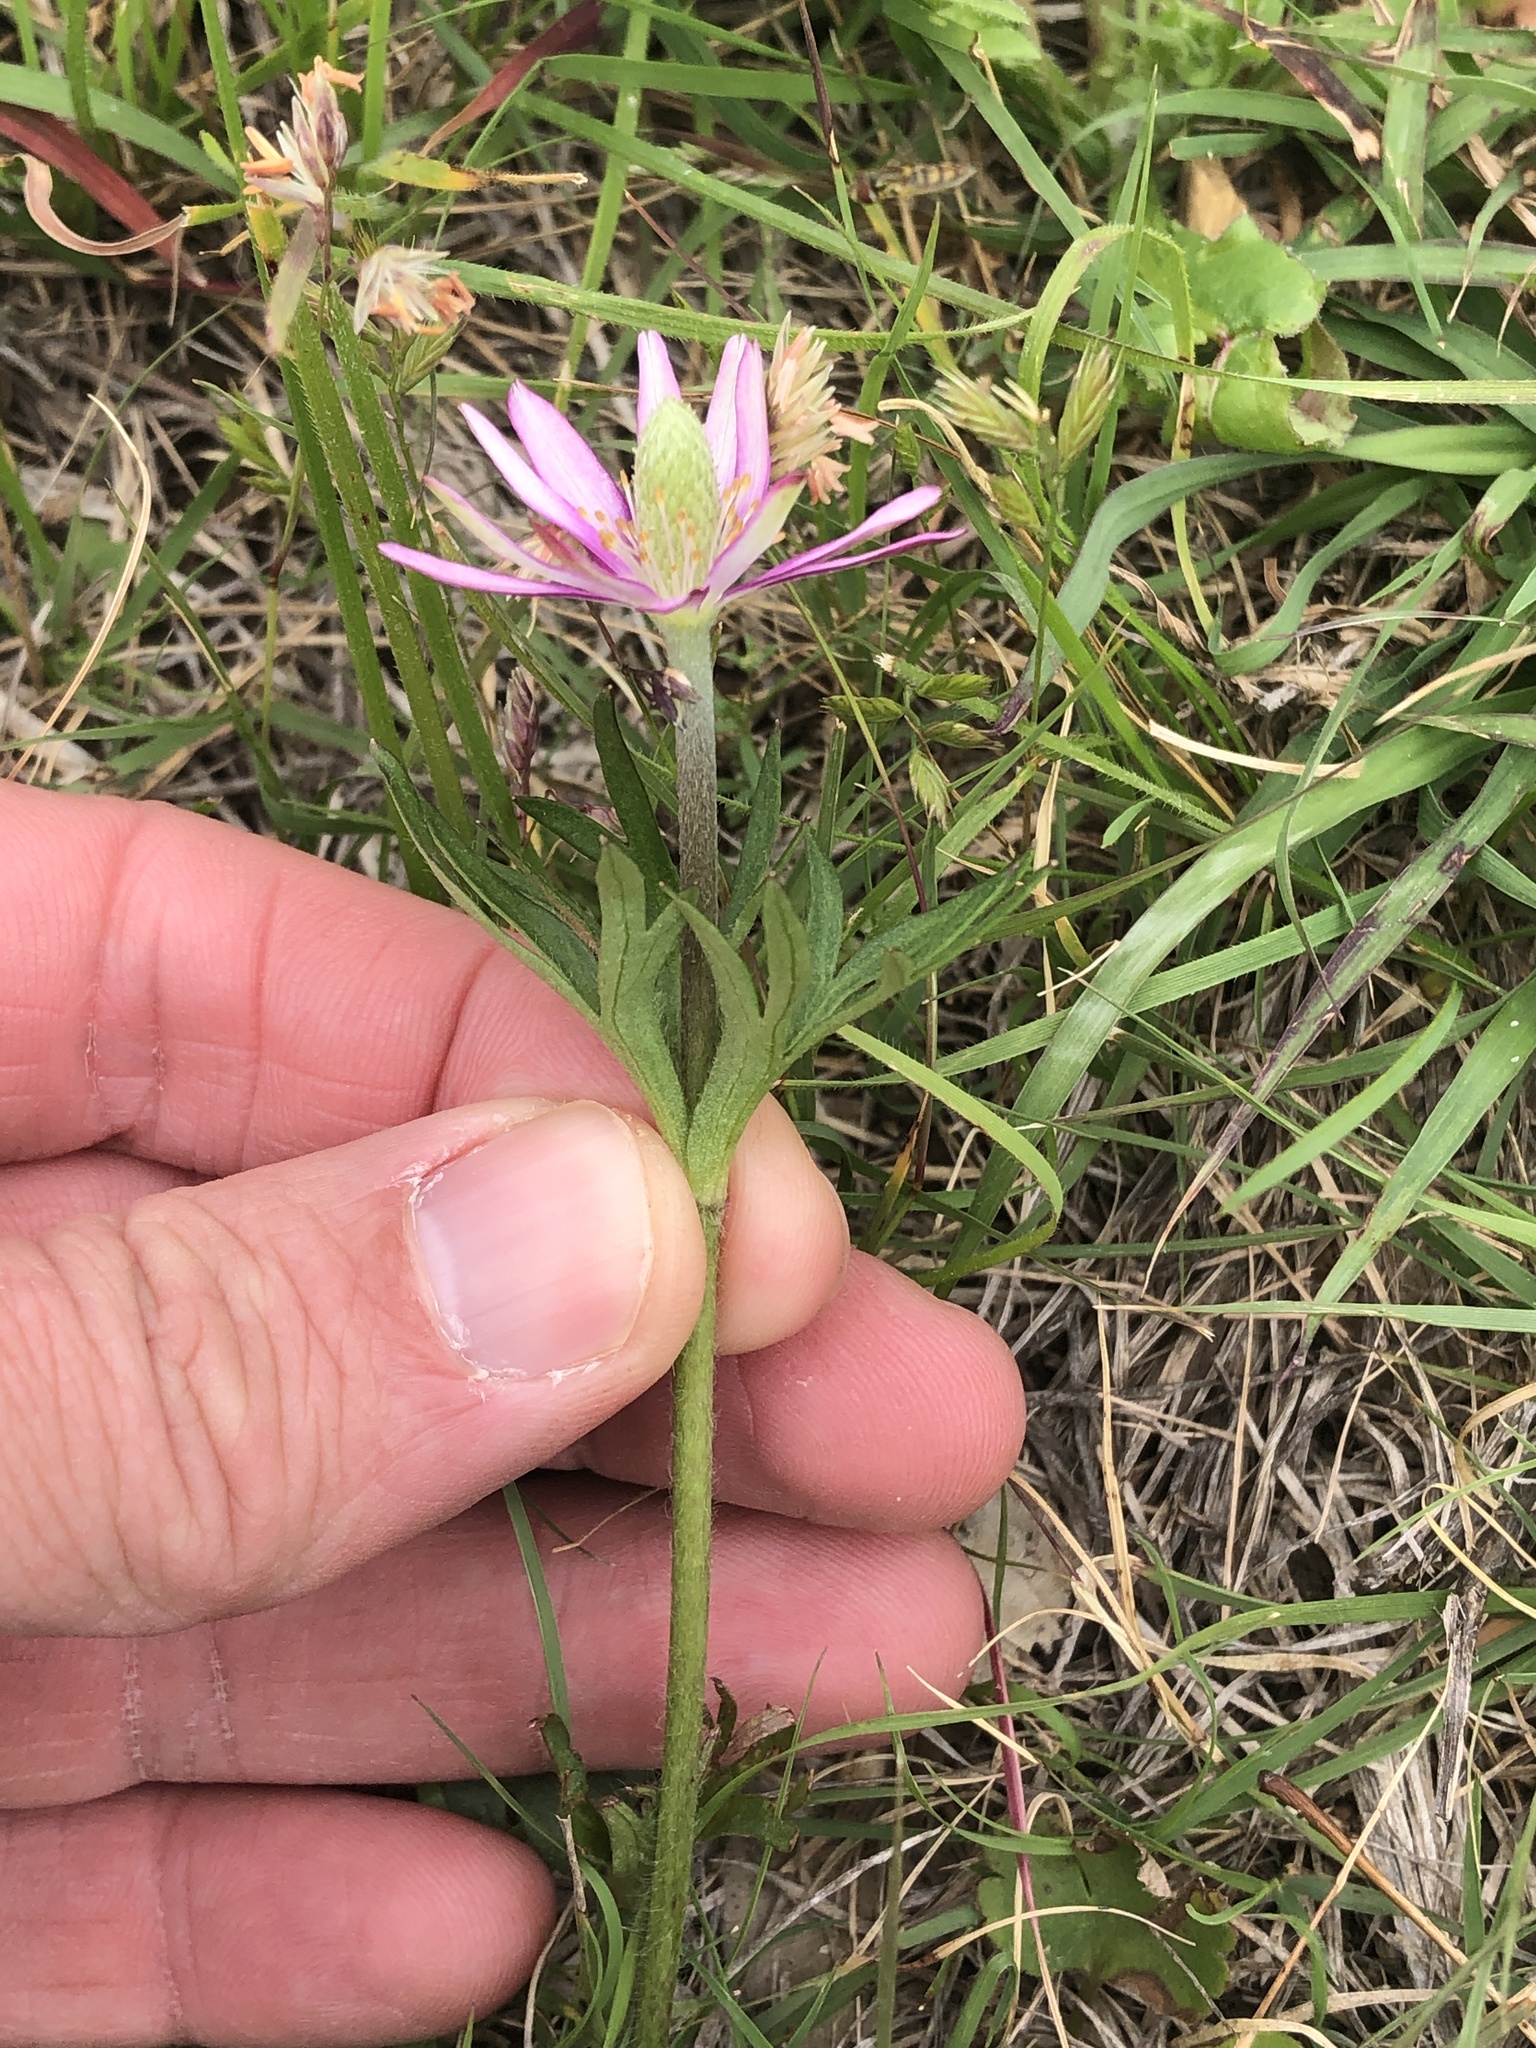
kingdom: Plantae
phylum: Tracheophyta
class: Magnoliopsida
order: Ranunculales
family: Ranunculaceae
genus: Anemone
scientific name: Anemone berlandieri
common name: Ten-petal anemone
